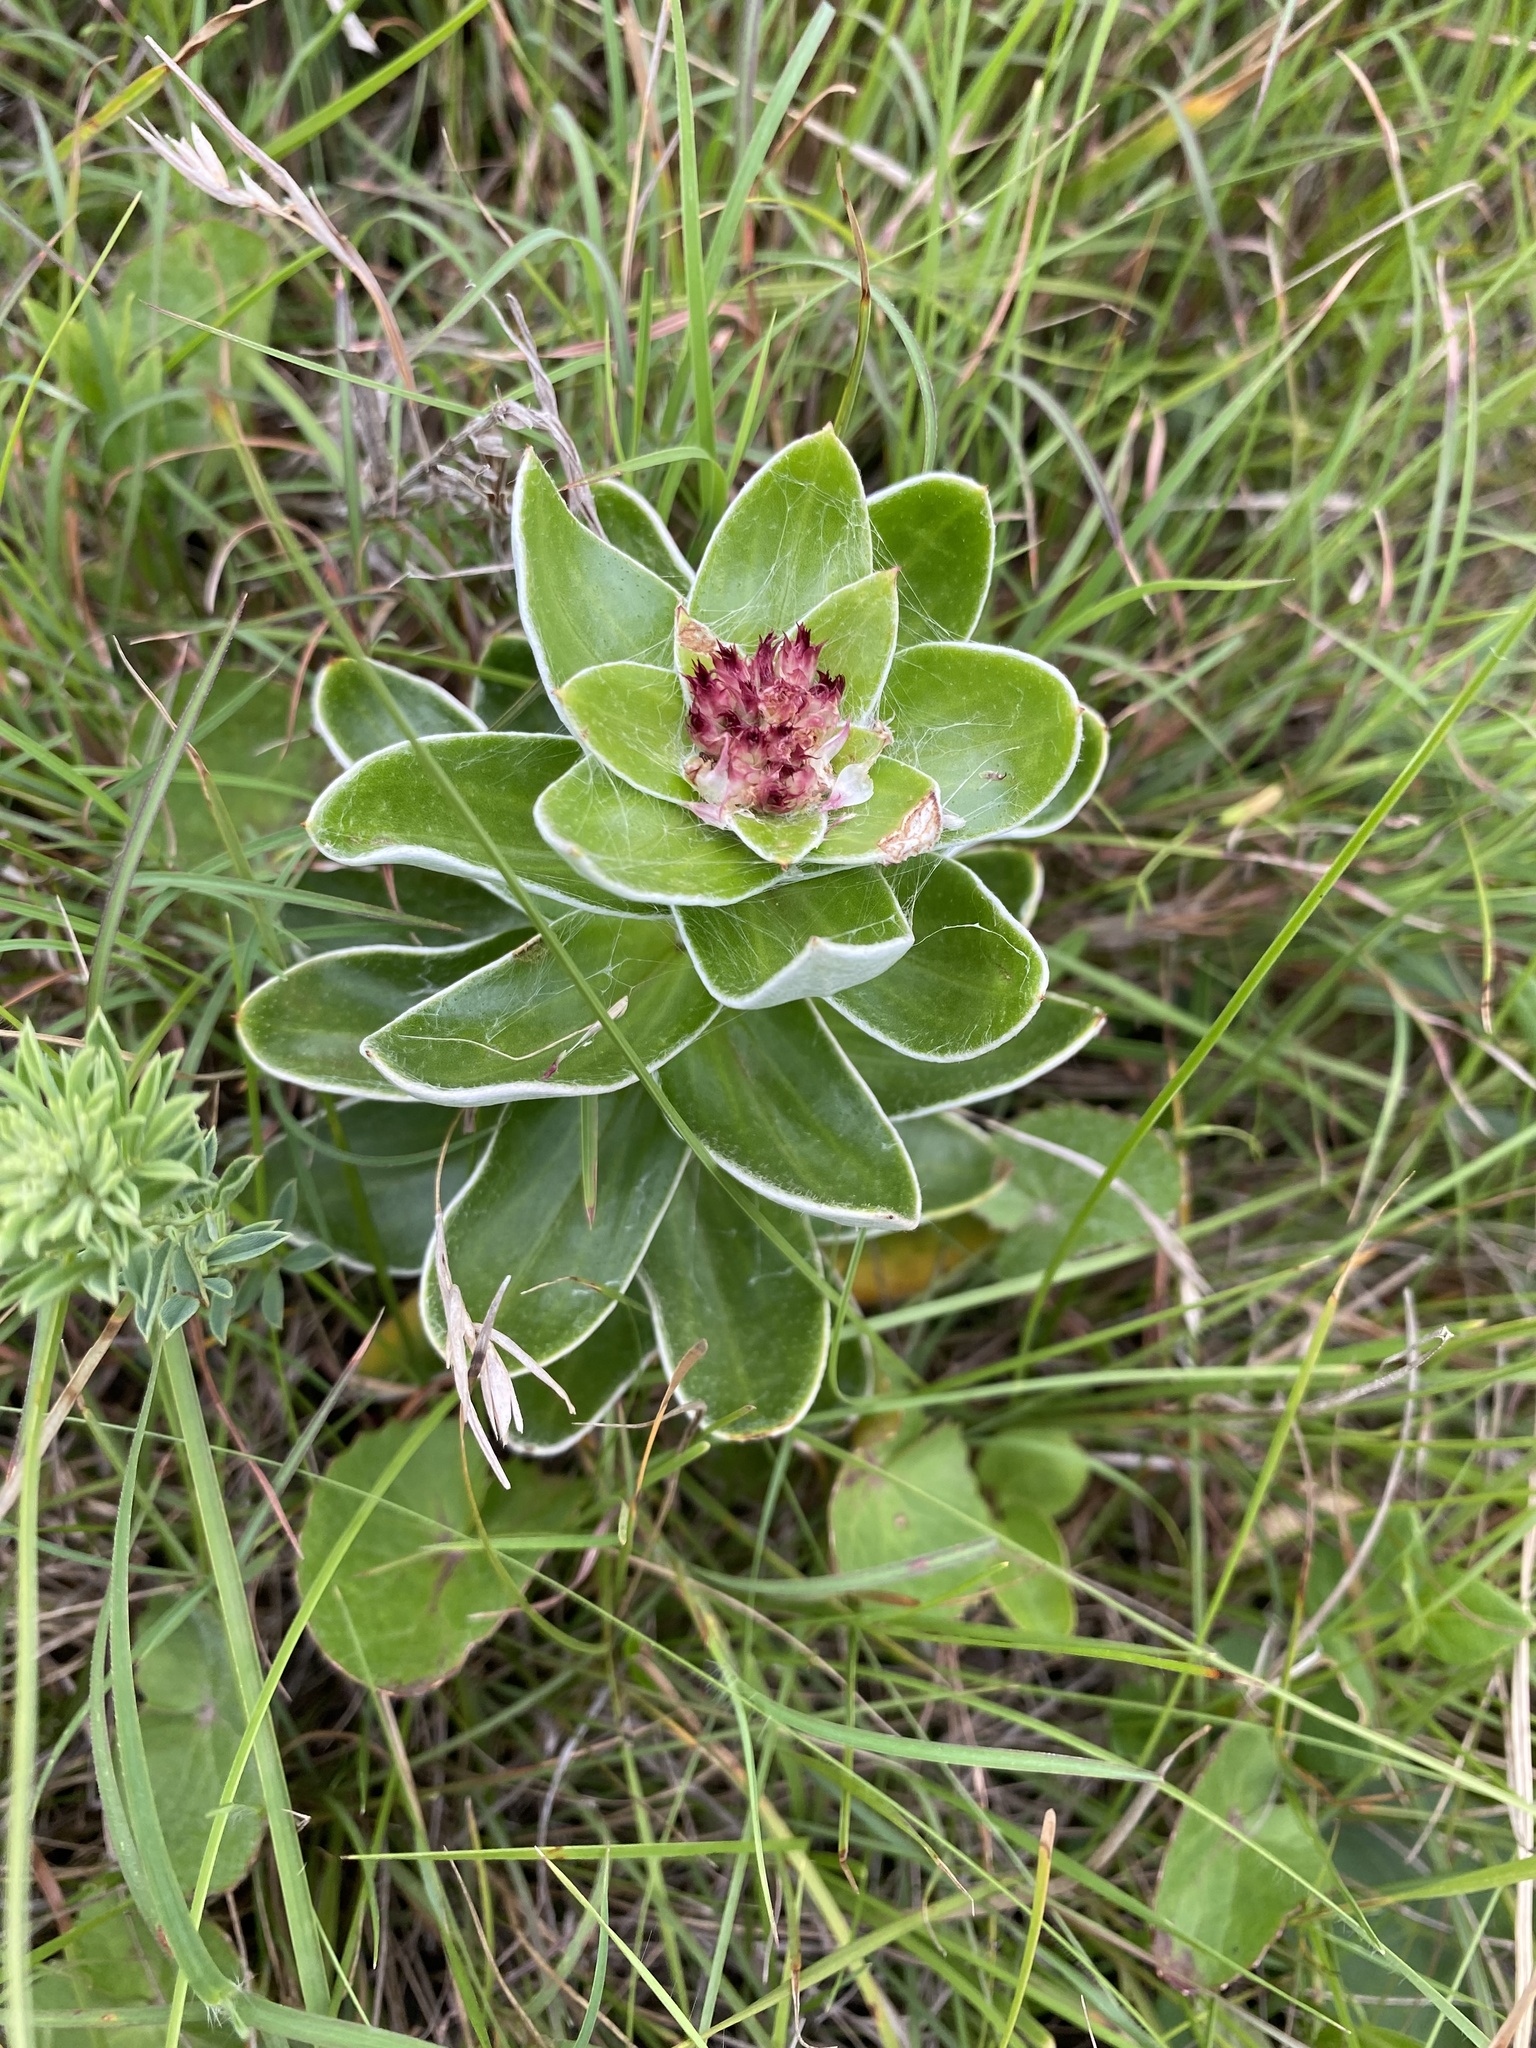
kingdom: Plantae
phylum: Tracheophyta
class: Magnoliopsida
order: Asterales
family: Asteraceae
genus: Helichrysum
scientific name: Helichrysum appendiculatum
